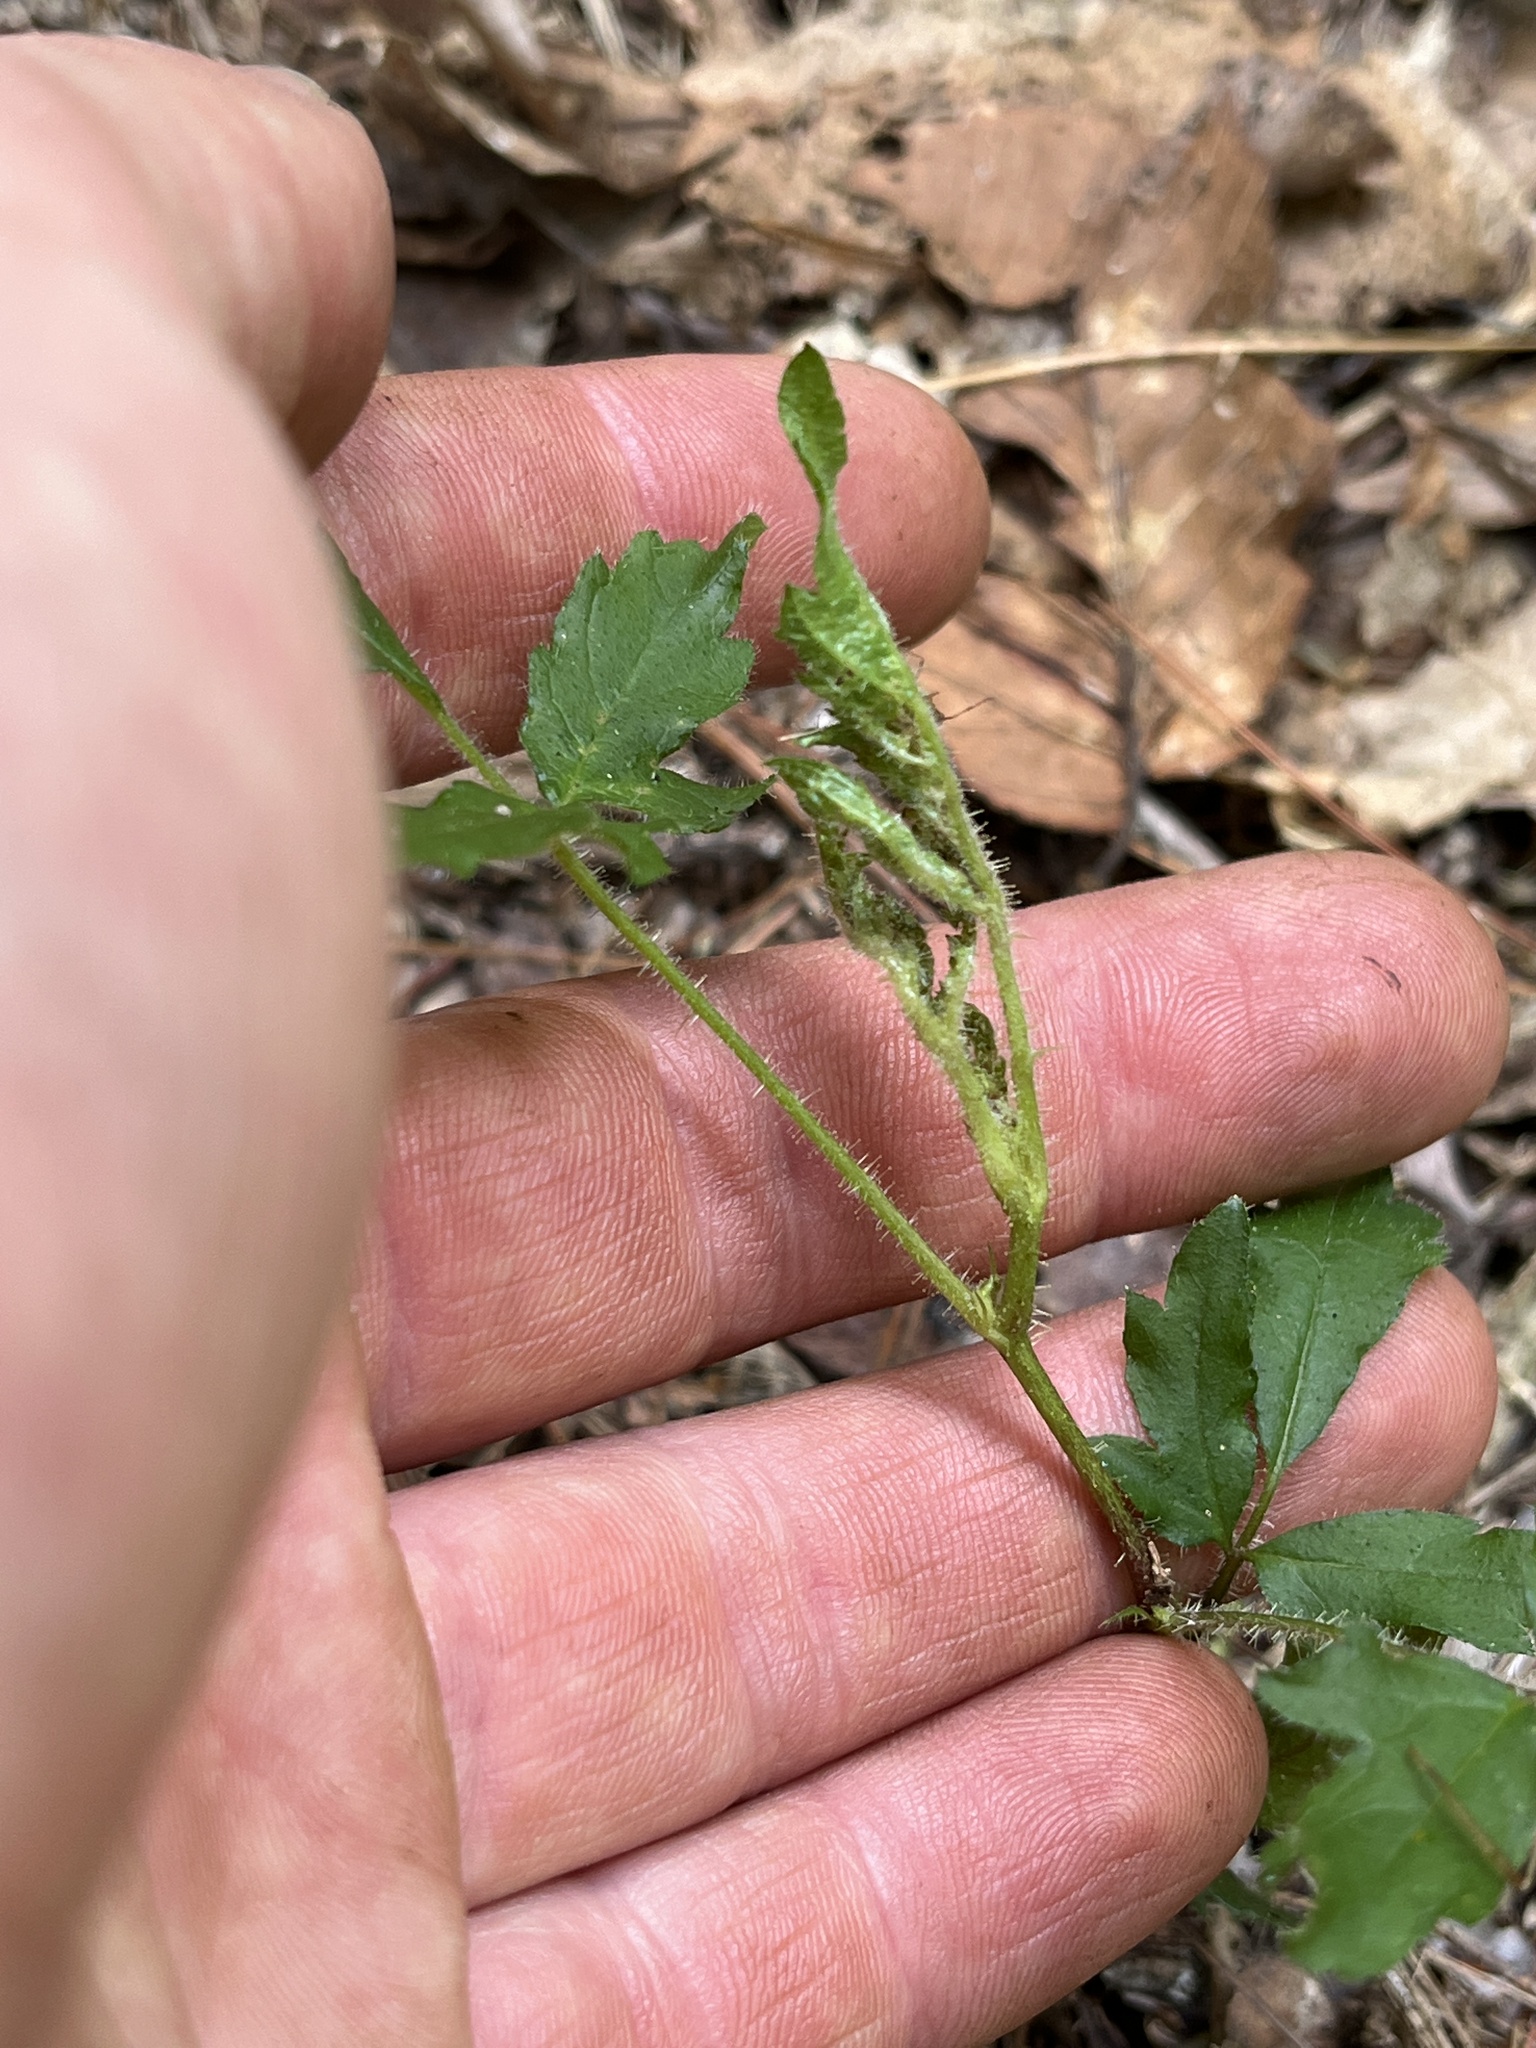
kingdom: Plantae
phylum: Tracheophyta
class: Magnoliopsida
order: Rosales
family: Rosaceae
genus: Rubus
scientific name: Rubus laciniatus
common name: Evergreen blackberry
